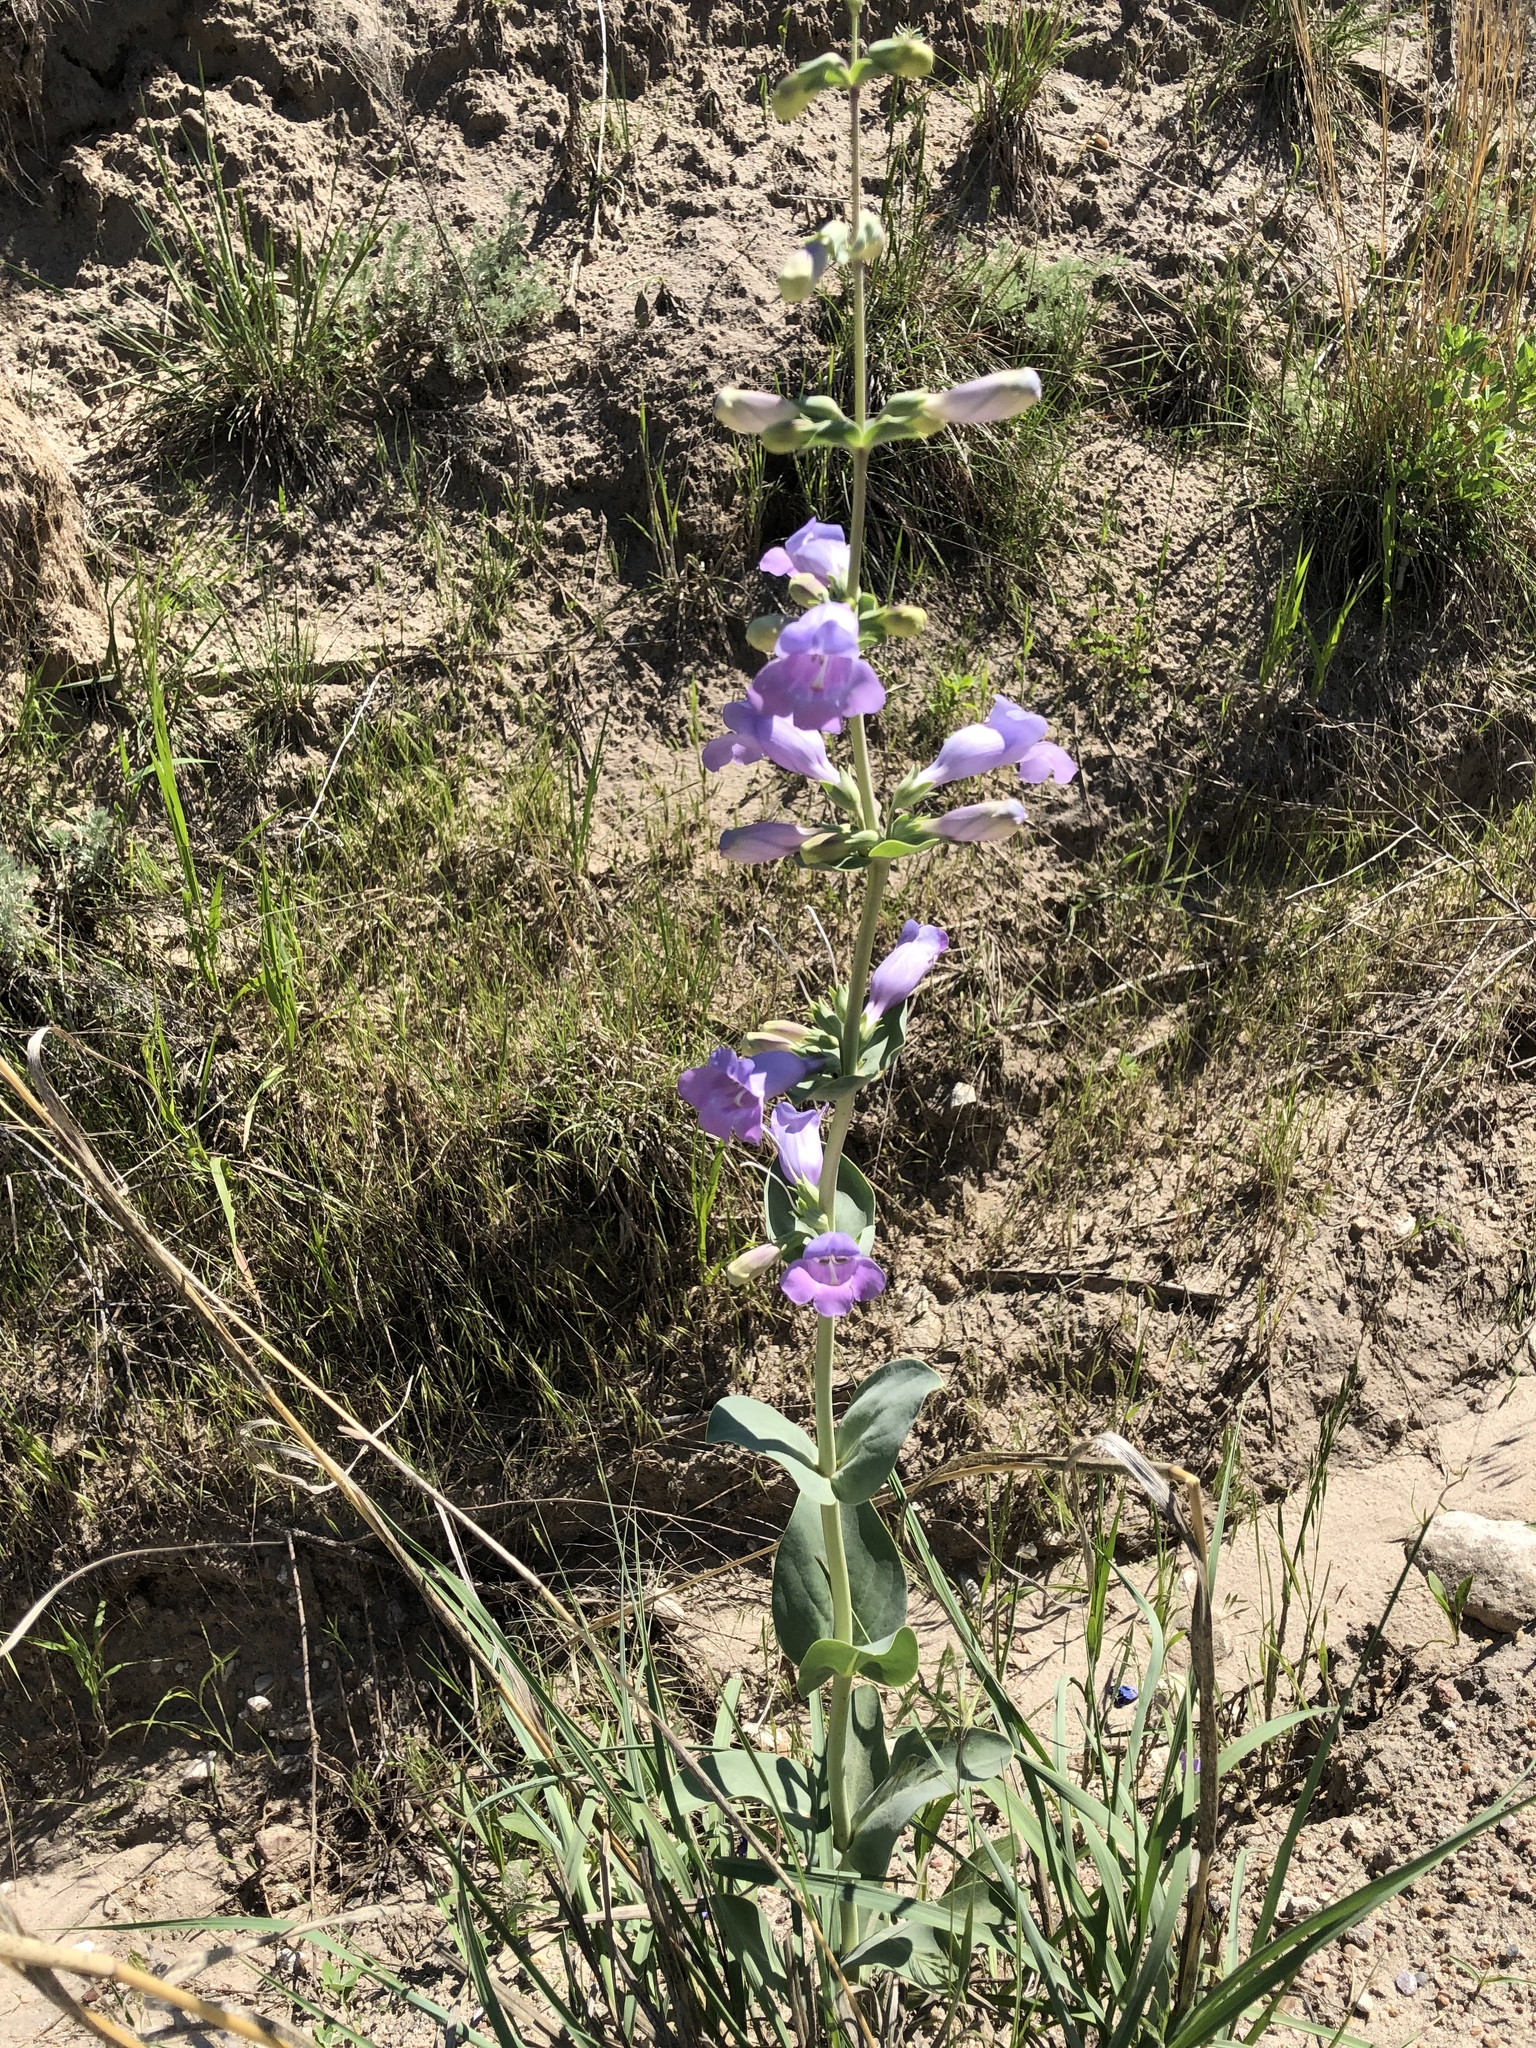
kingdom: Plantae
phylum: Tracheophyta
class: Magnoliopsida
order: Lamiales
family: Plantaginaceae
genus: Penstemon
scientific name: Penstemon
